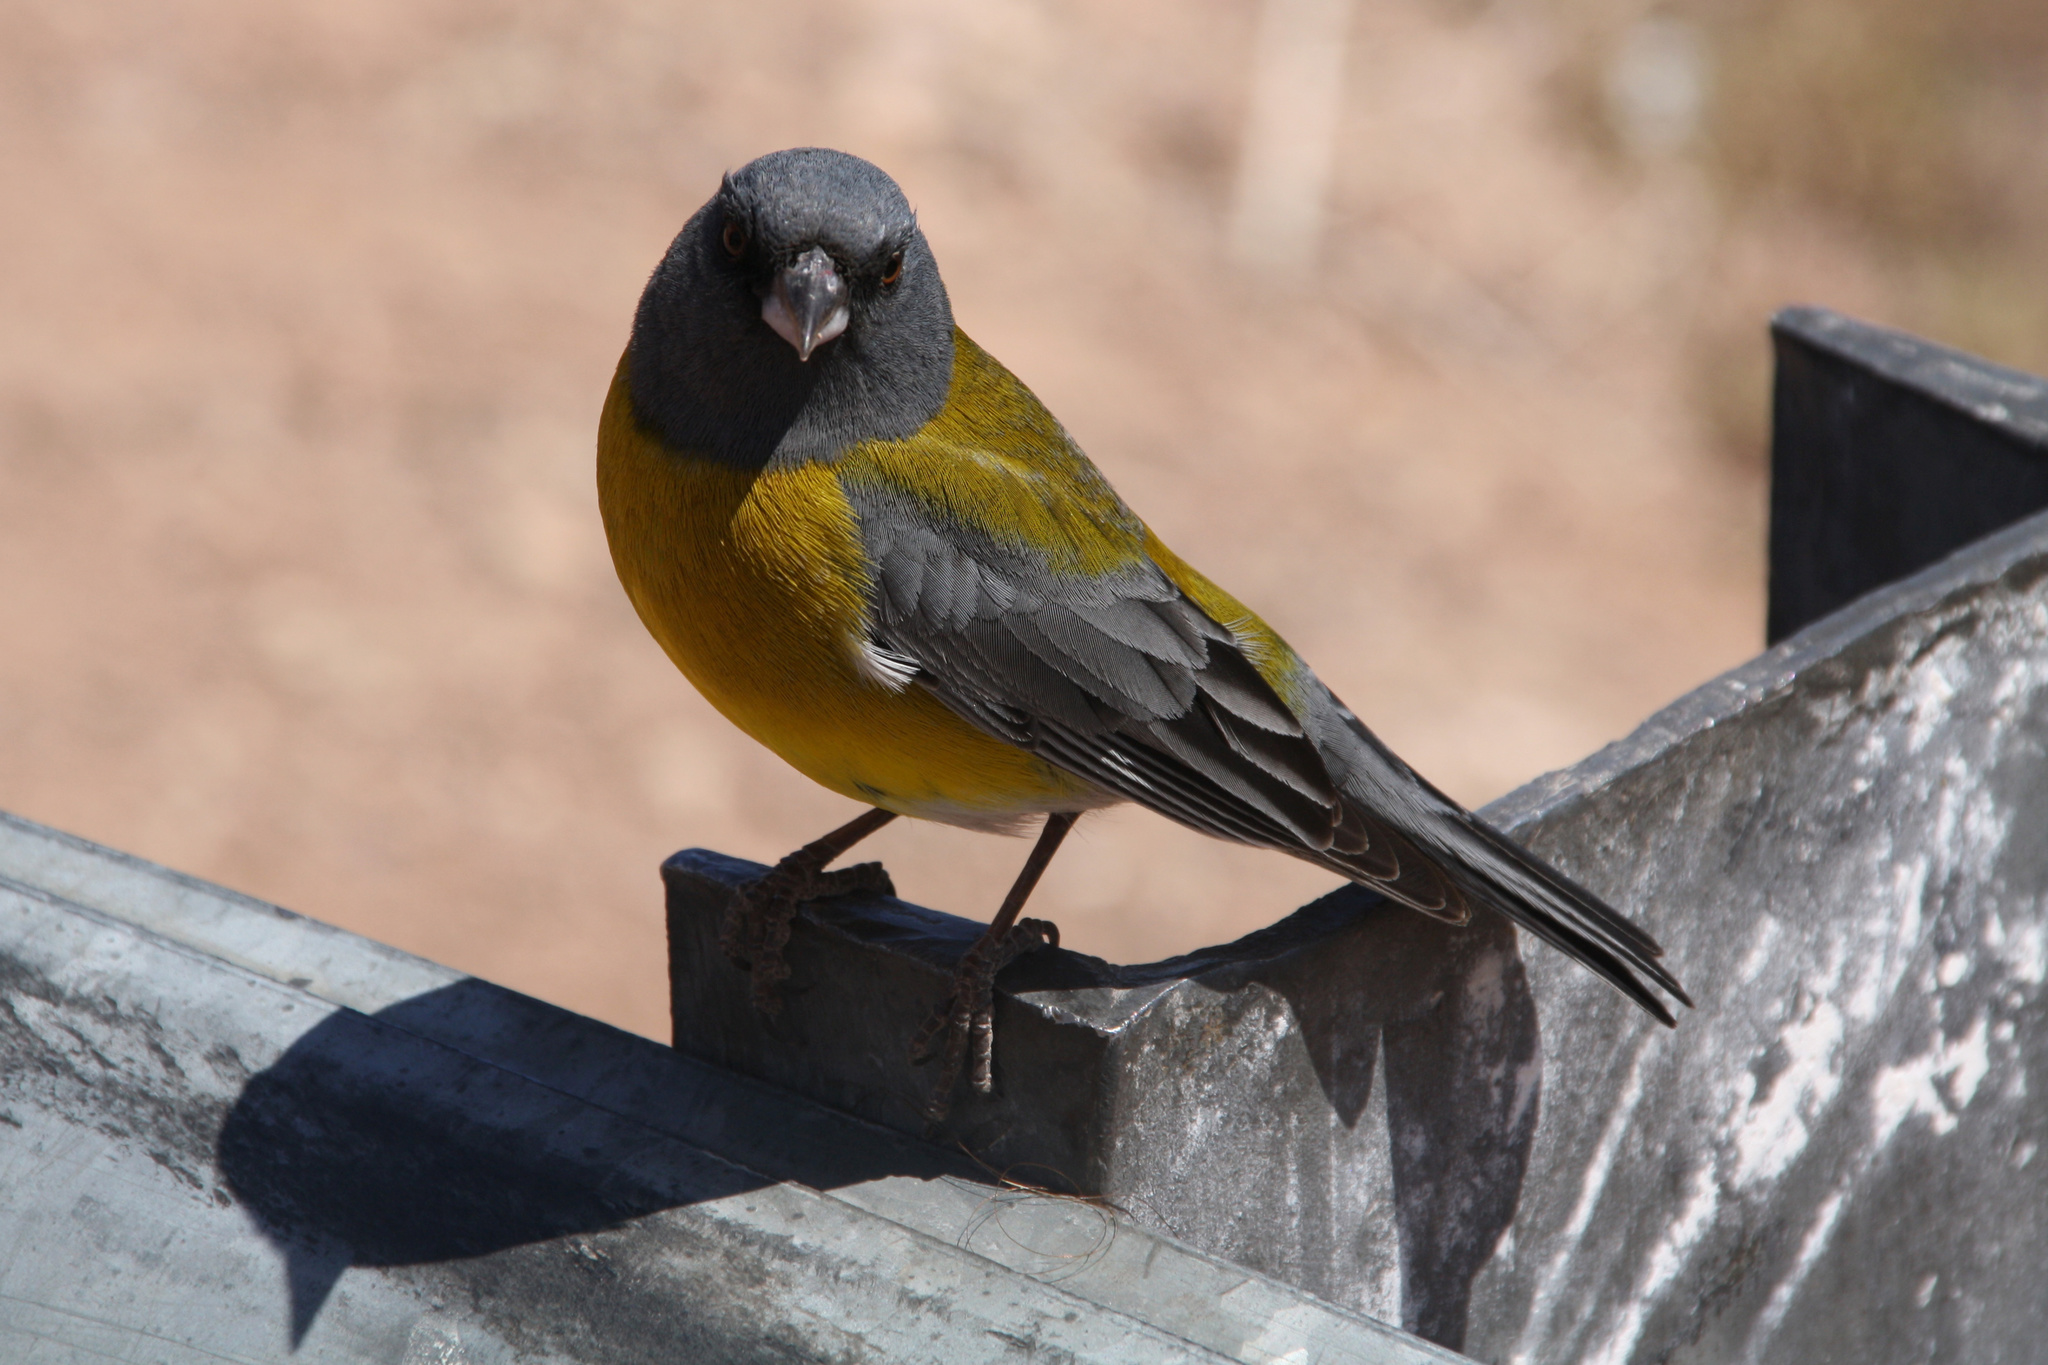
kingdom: Animalia
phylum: Chordata
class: Aves
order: Passeriformes
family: Thraupidae
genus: Phrygilus
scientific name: Phrygilus gayi
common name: Grey-hooded sierra finch
